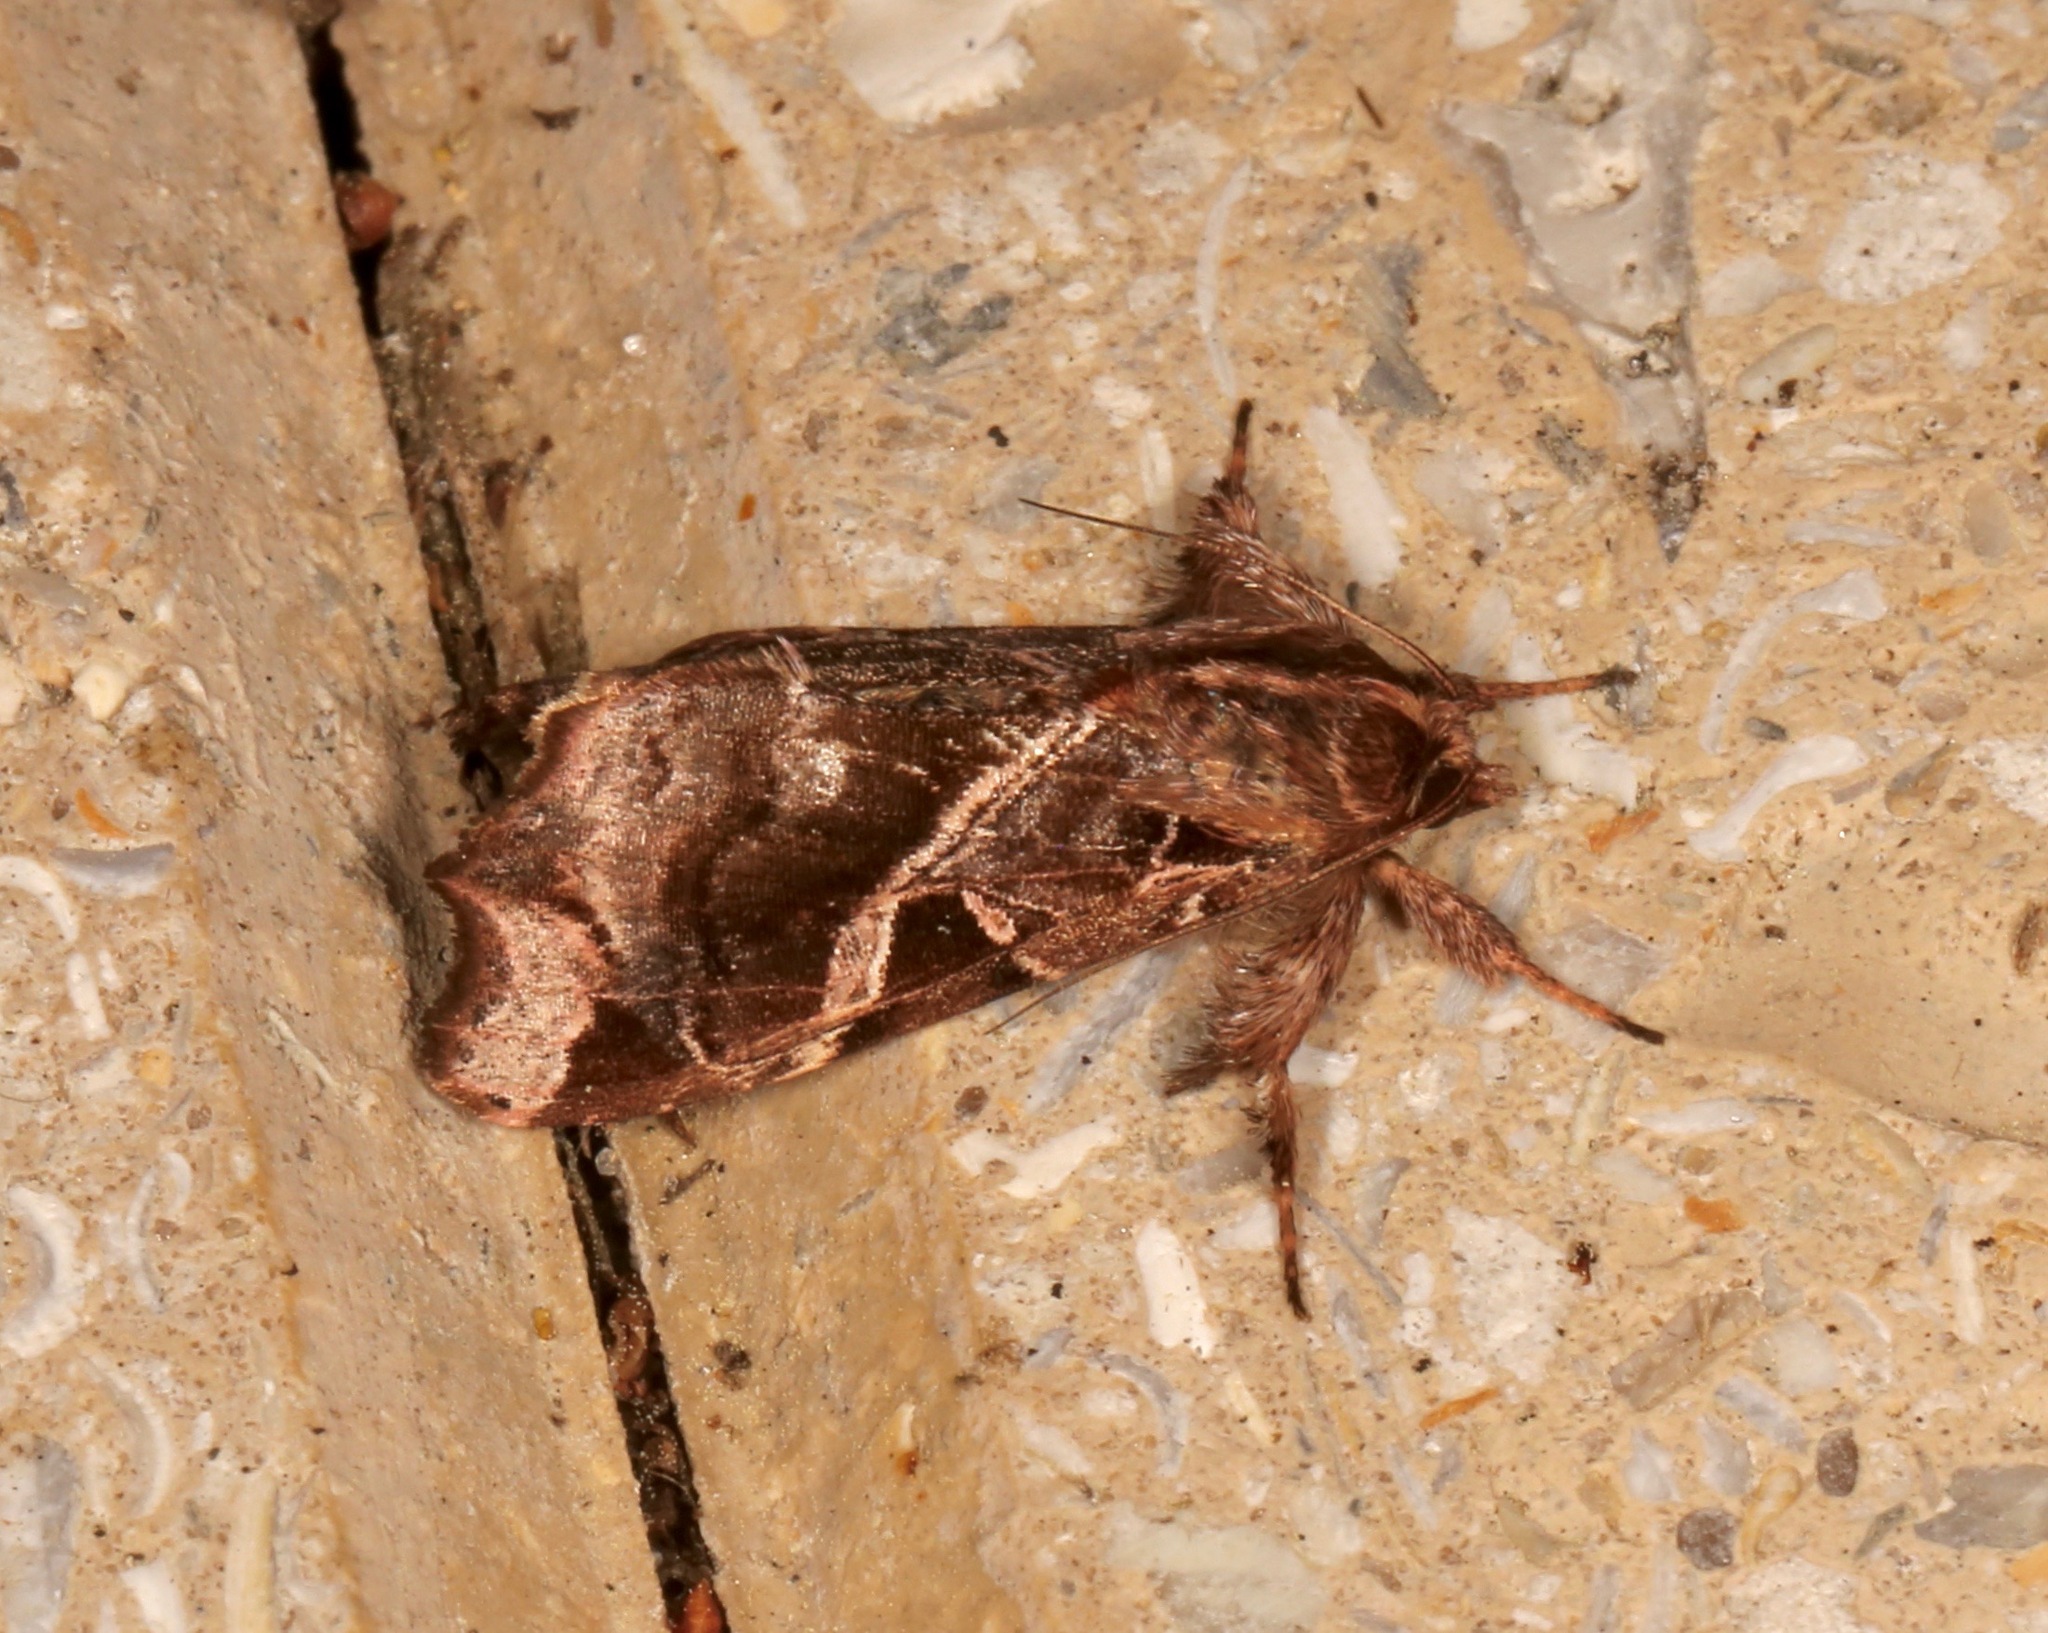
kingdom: Animalia
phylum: Arthropoda
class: Insecta
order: Lepidoptera
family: Noctuidae
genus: Callopistria
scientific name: Callopistria floridensis
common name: Florida fern moth
